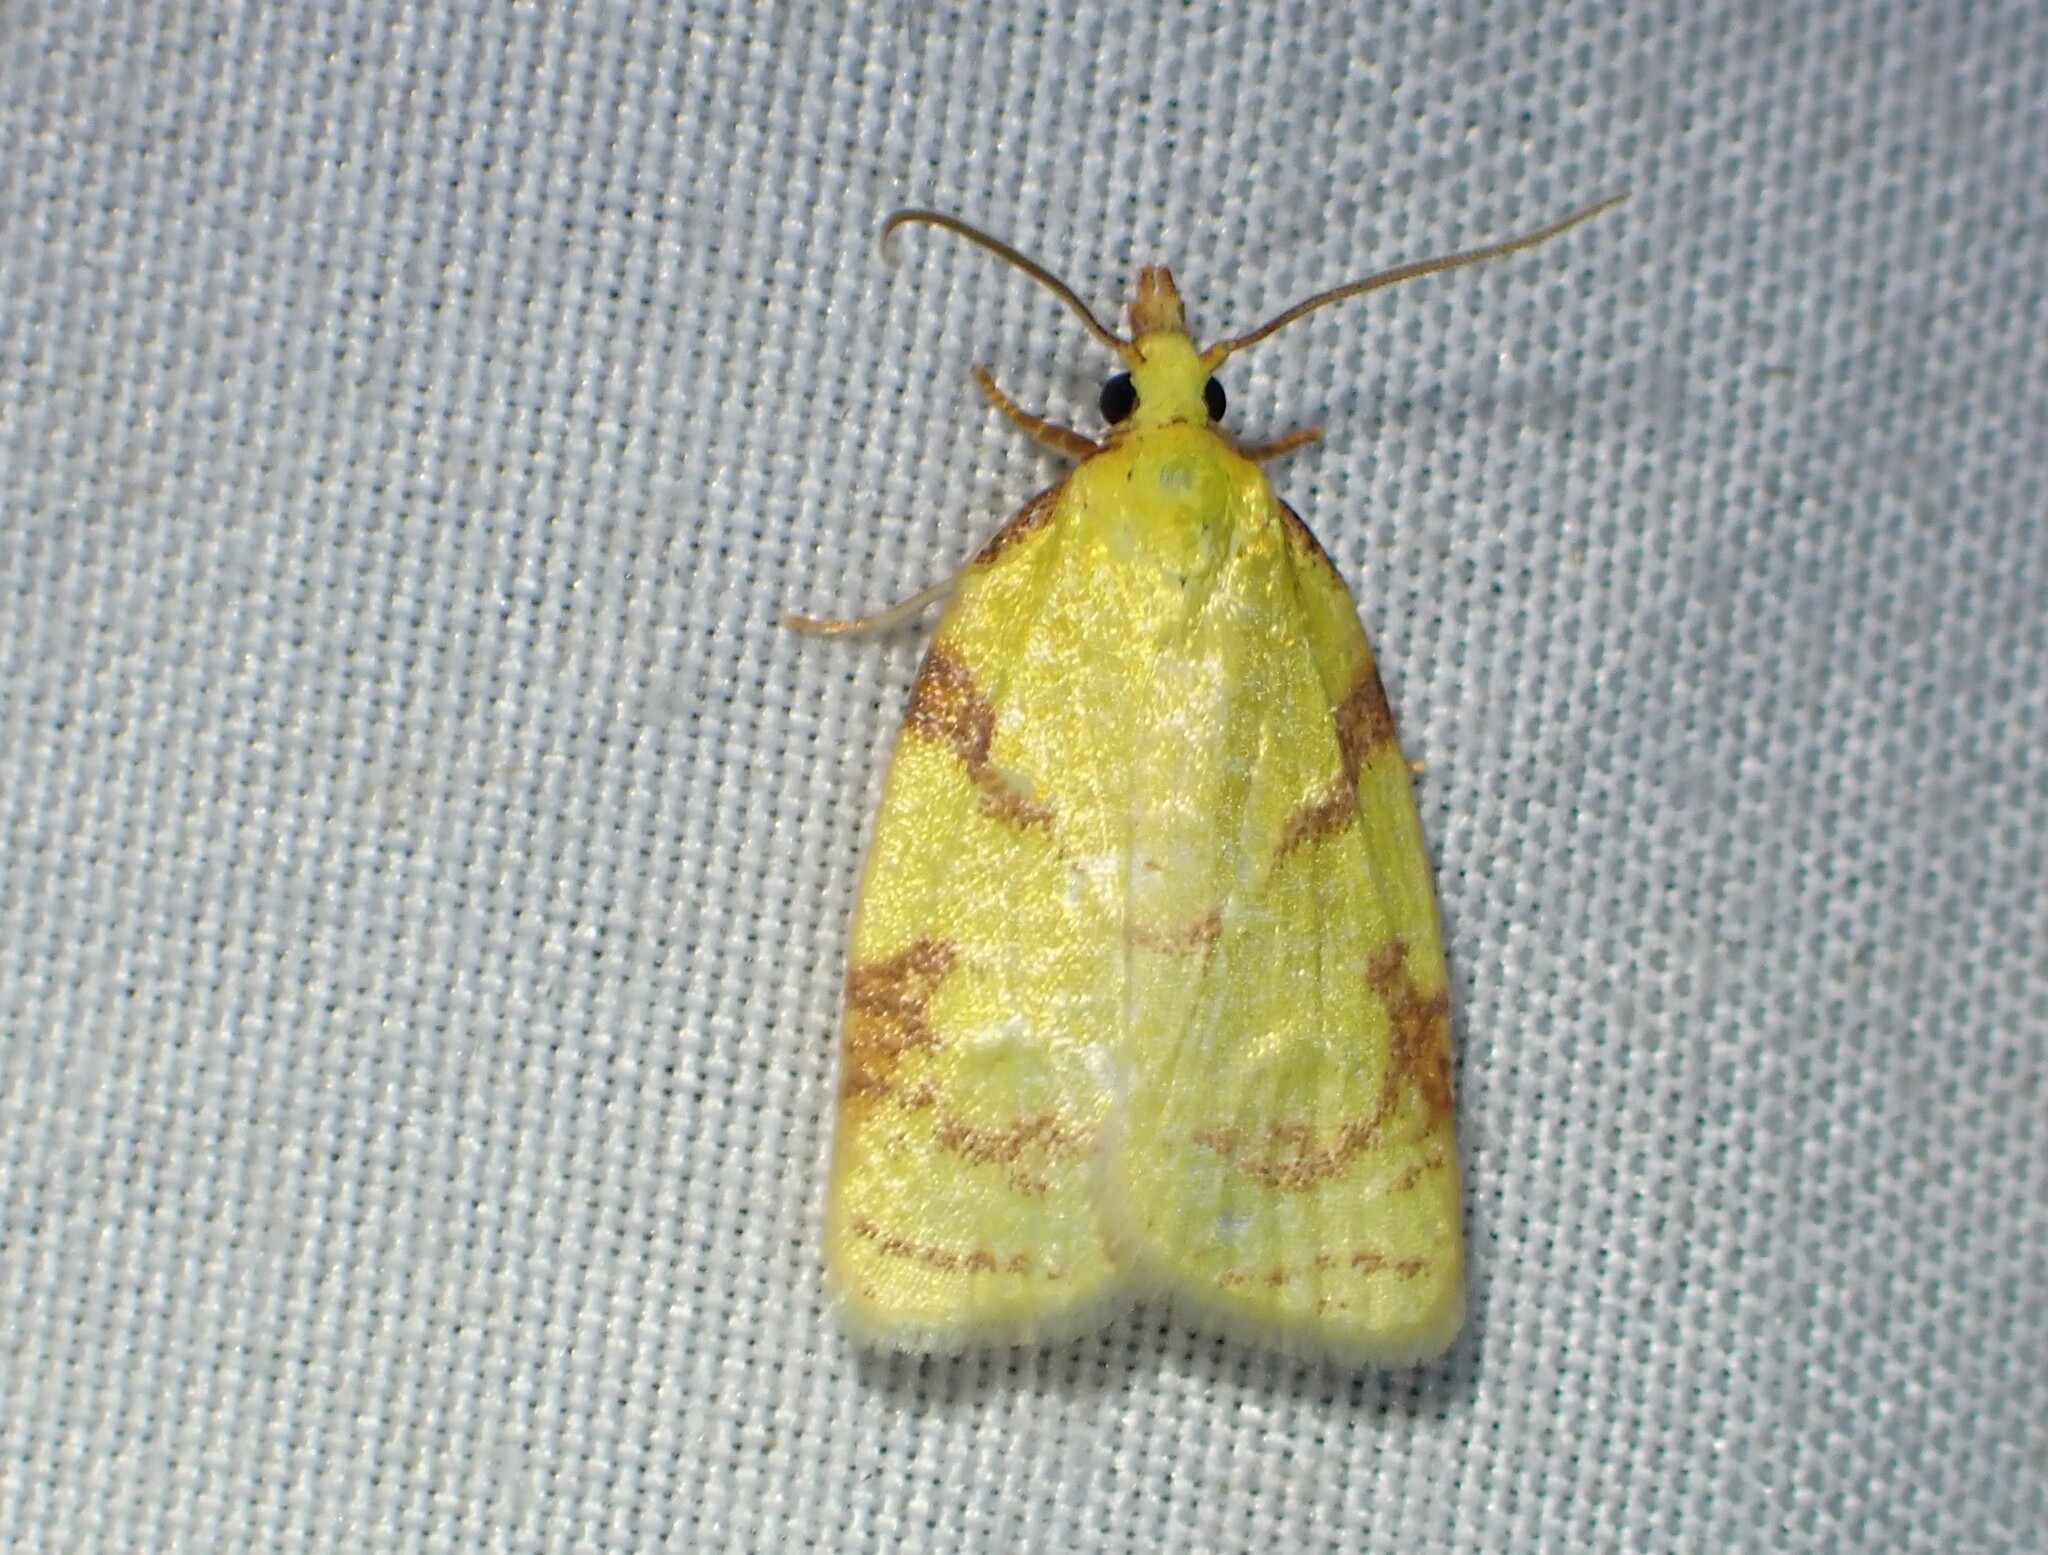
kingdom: Animalia
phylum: Arthropoda
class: Insecta
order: Lepidoptera
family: Tortricidae
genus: Cenopis
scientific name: Cenopis pettitana
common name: Maple-basswood leafroller moth
